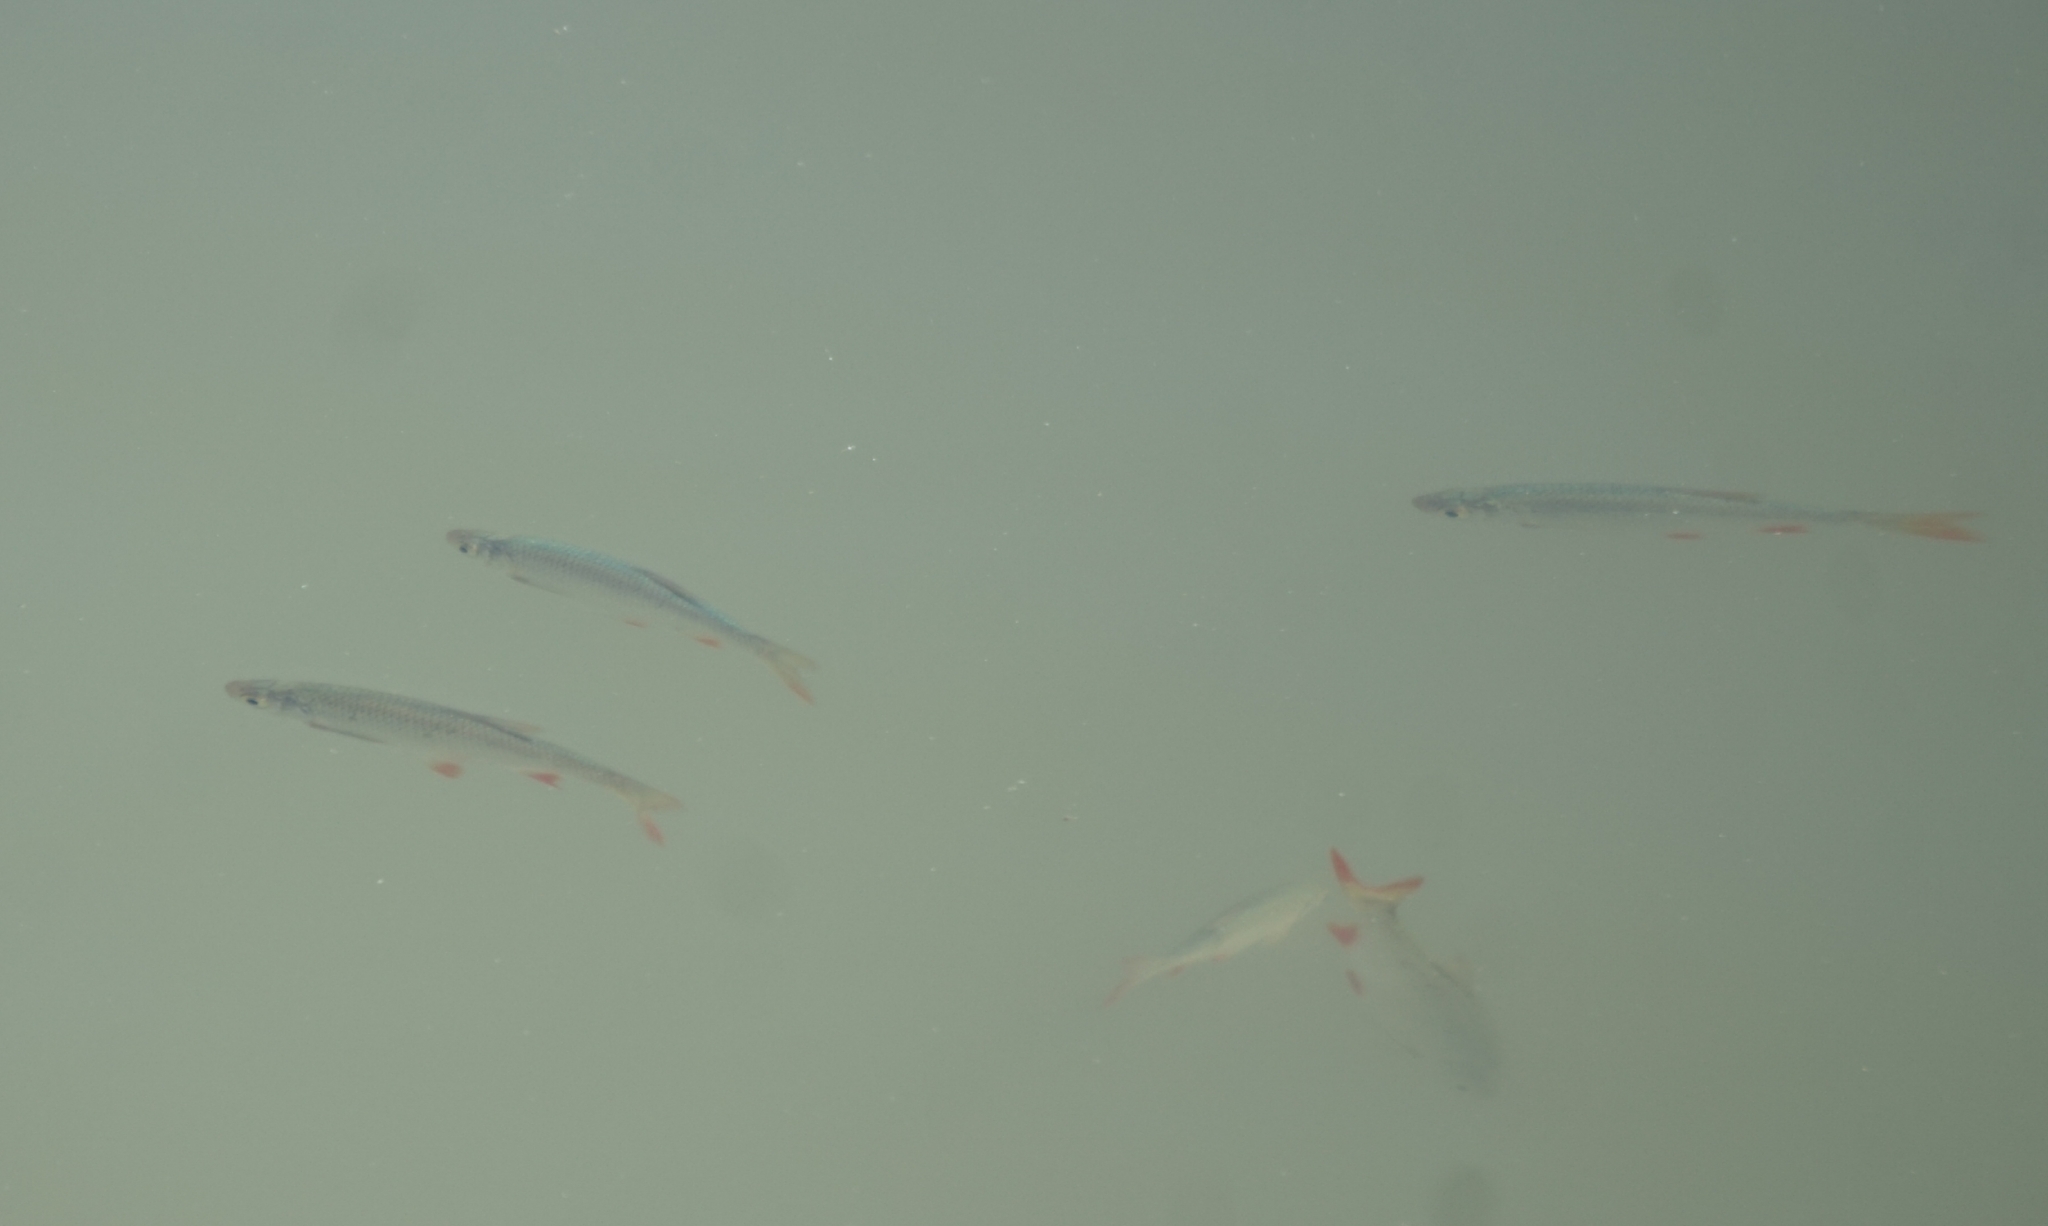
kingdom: Animalia
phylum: Chordata
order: Cypriniformes
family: Cyprinidae
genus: Scardinius
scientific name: Scardinius erythrophthalmus
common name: Rudd
